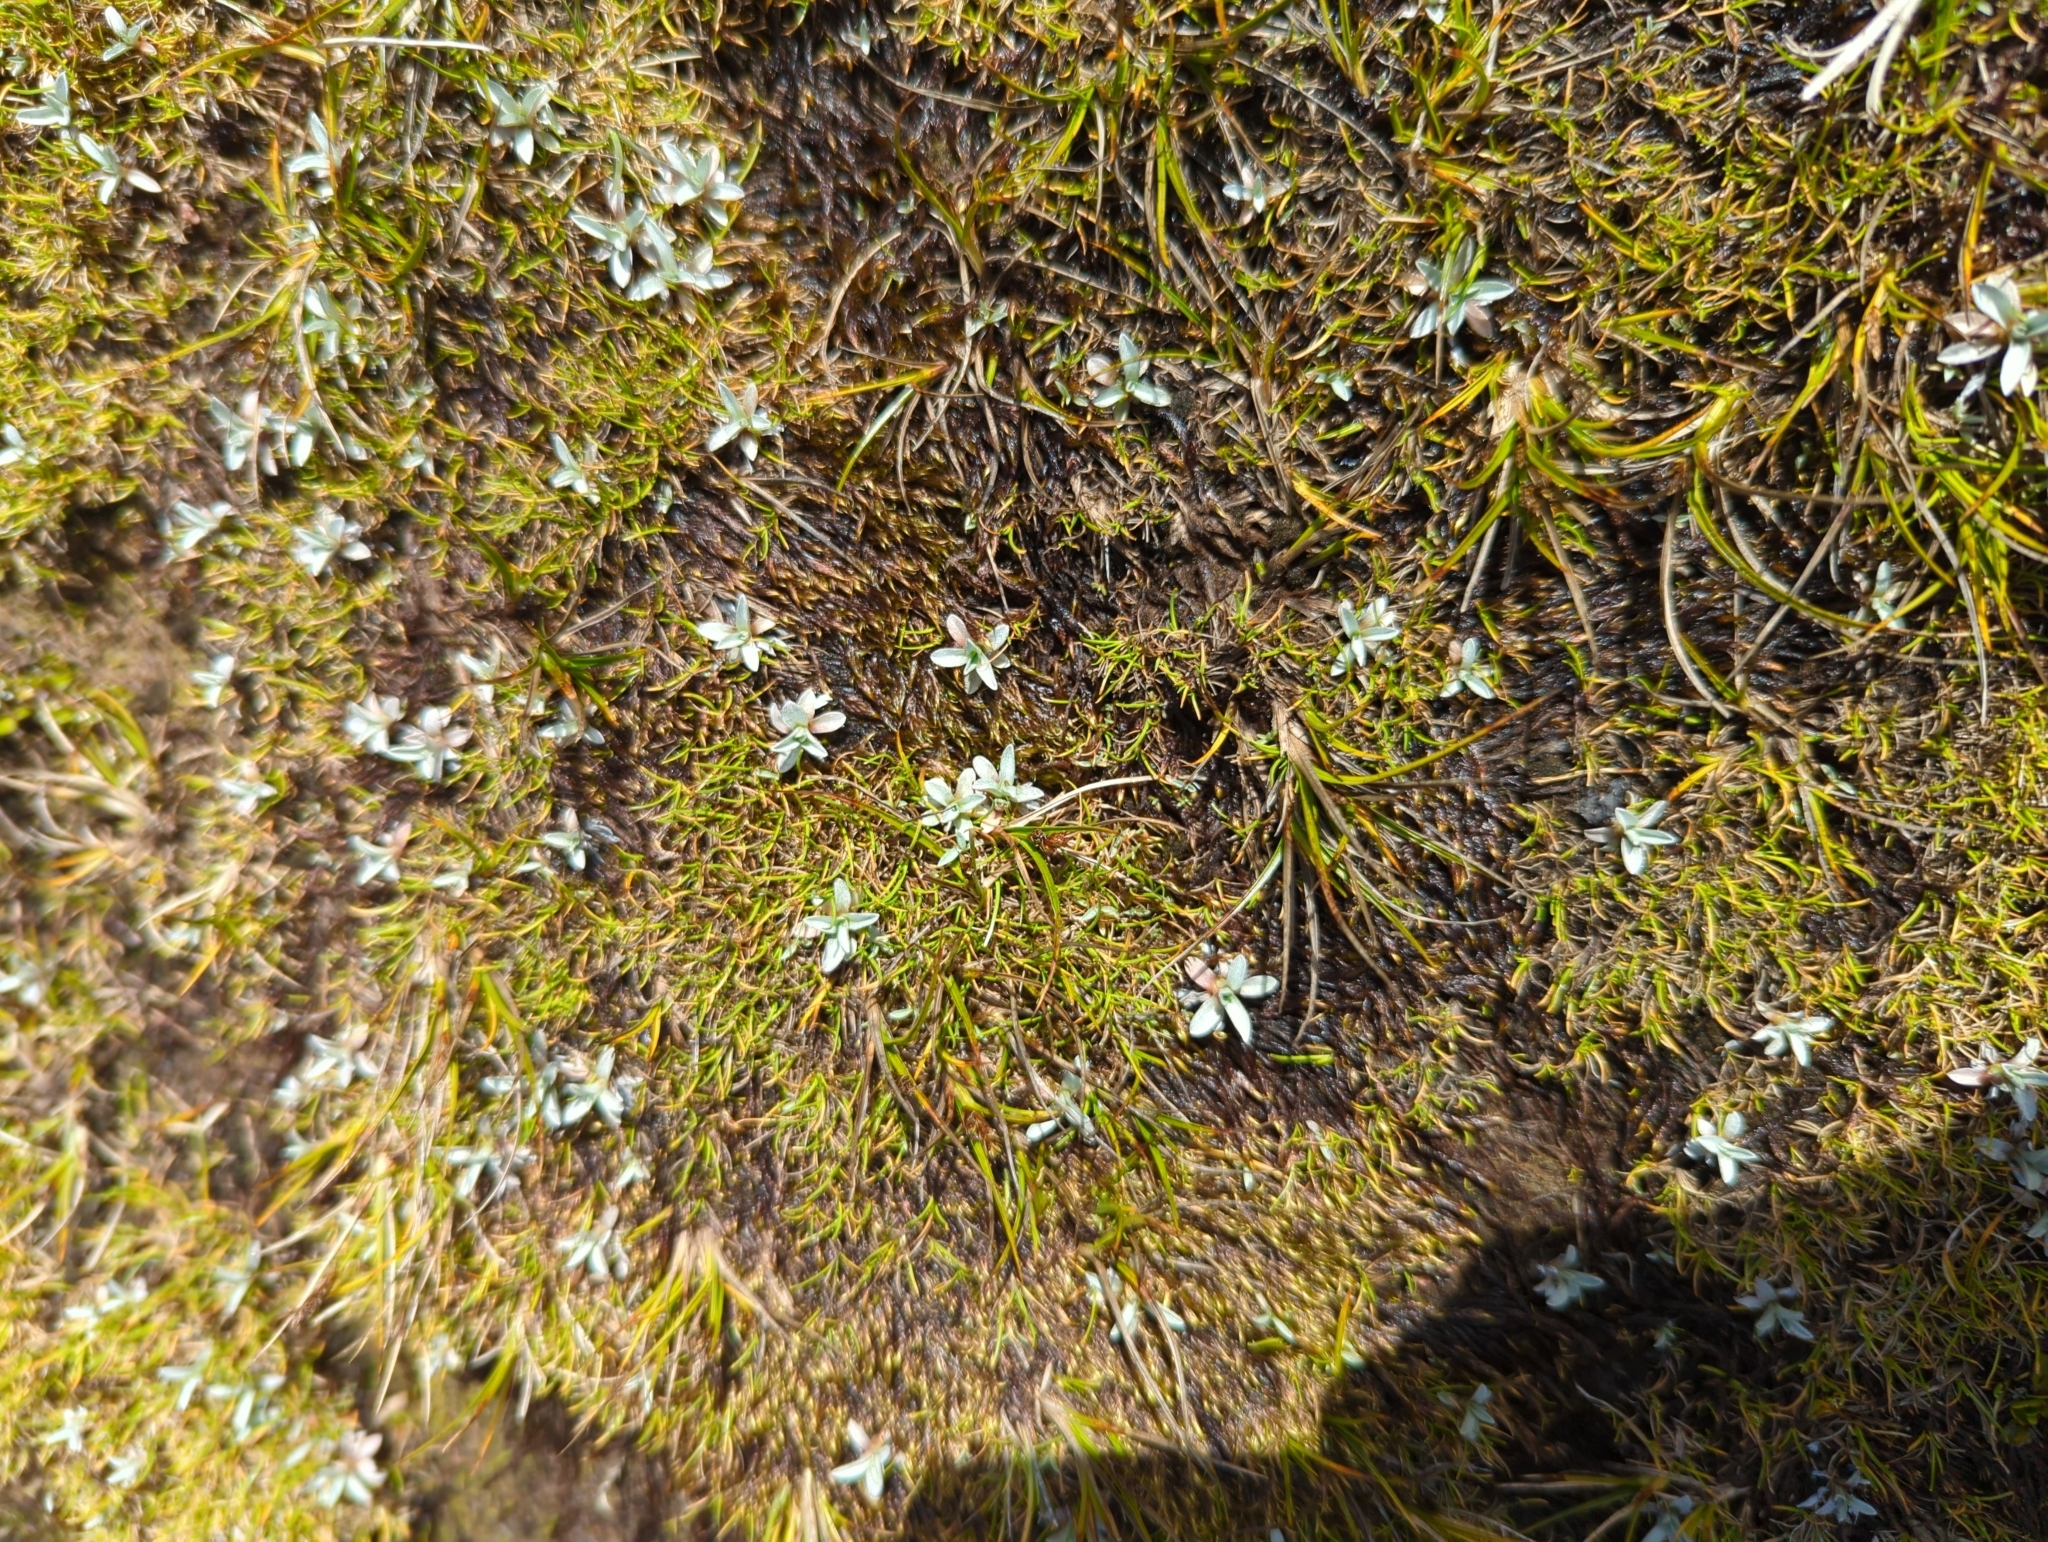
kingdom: Plantae
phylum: Tracheophyta
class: Magnoliopsida
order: Asterales
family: Asteraceae
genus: Euchiton
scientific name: Euchiton traversii
